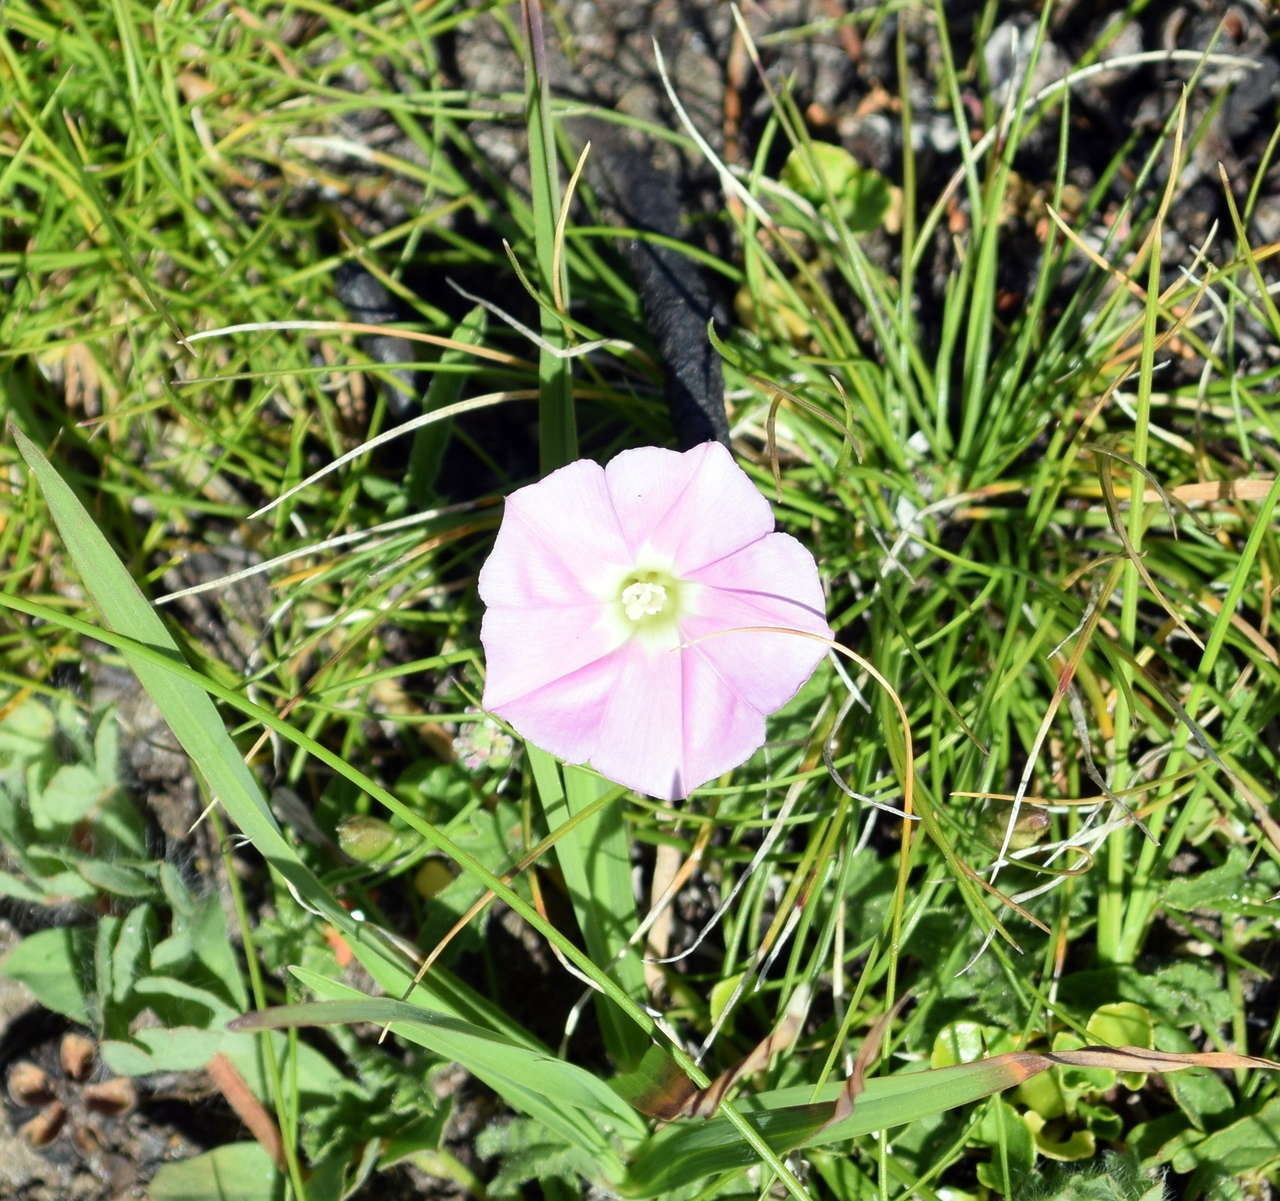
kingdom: Plantae
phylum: Tracheophyta
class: Magnoliopsida
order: Solanales
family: Convolvulaceae
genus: Convolvulus
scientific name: Convolvulus angustissimus
